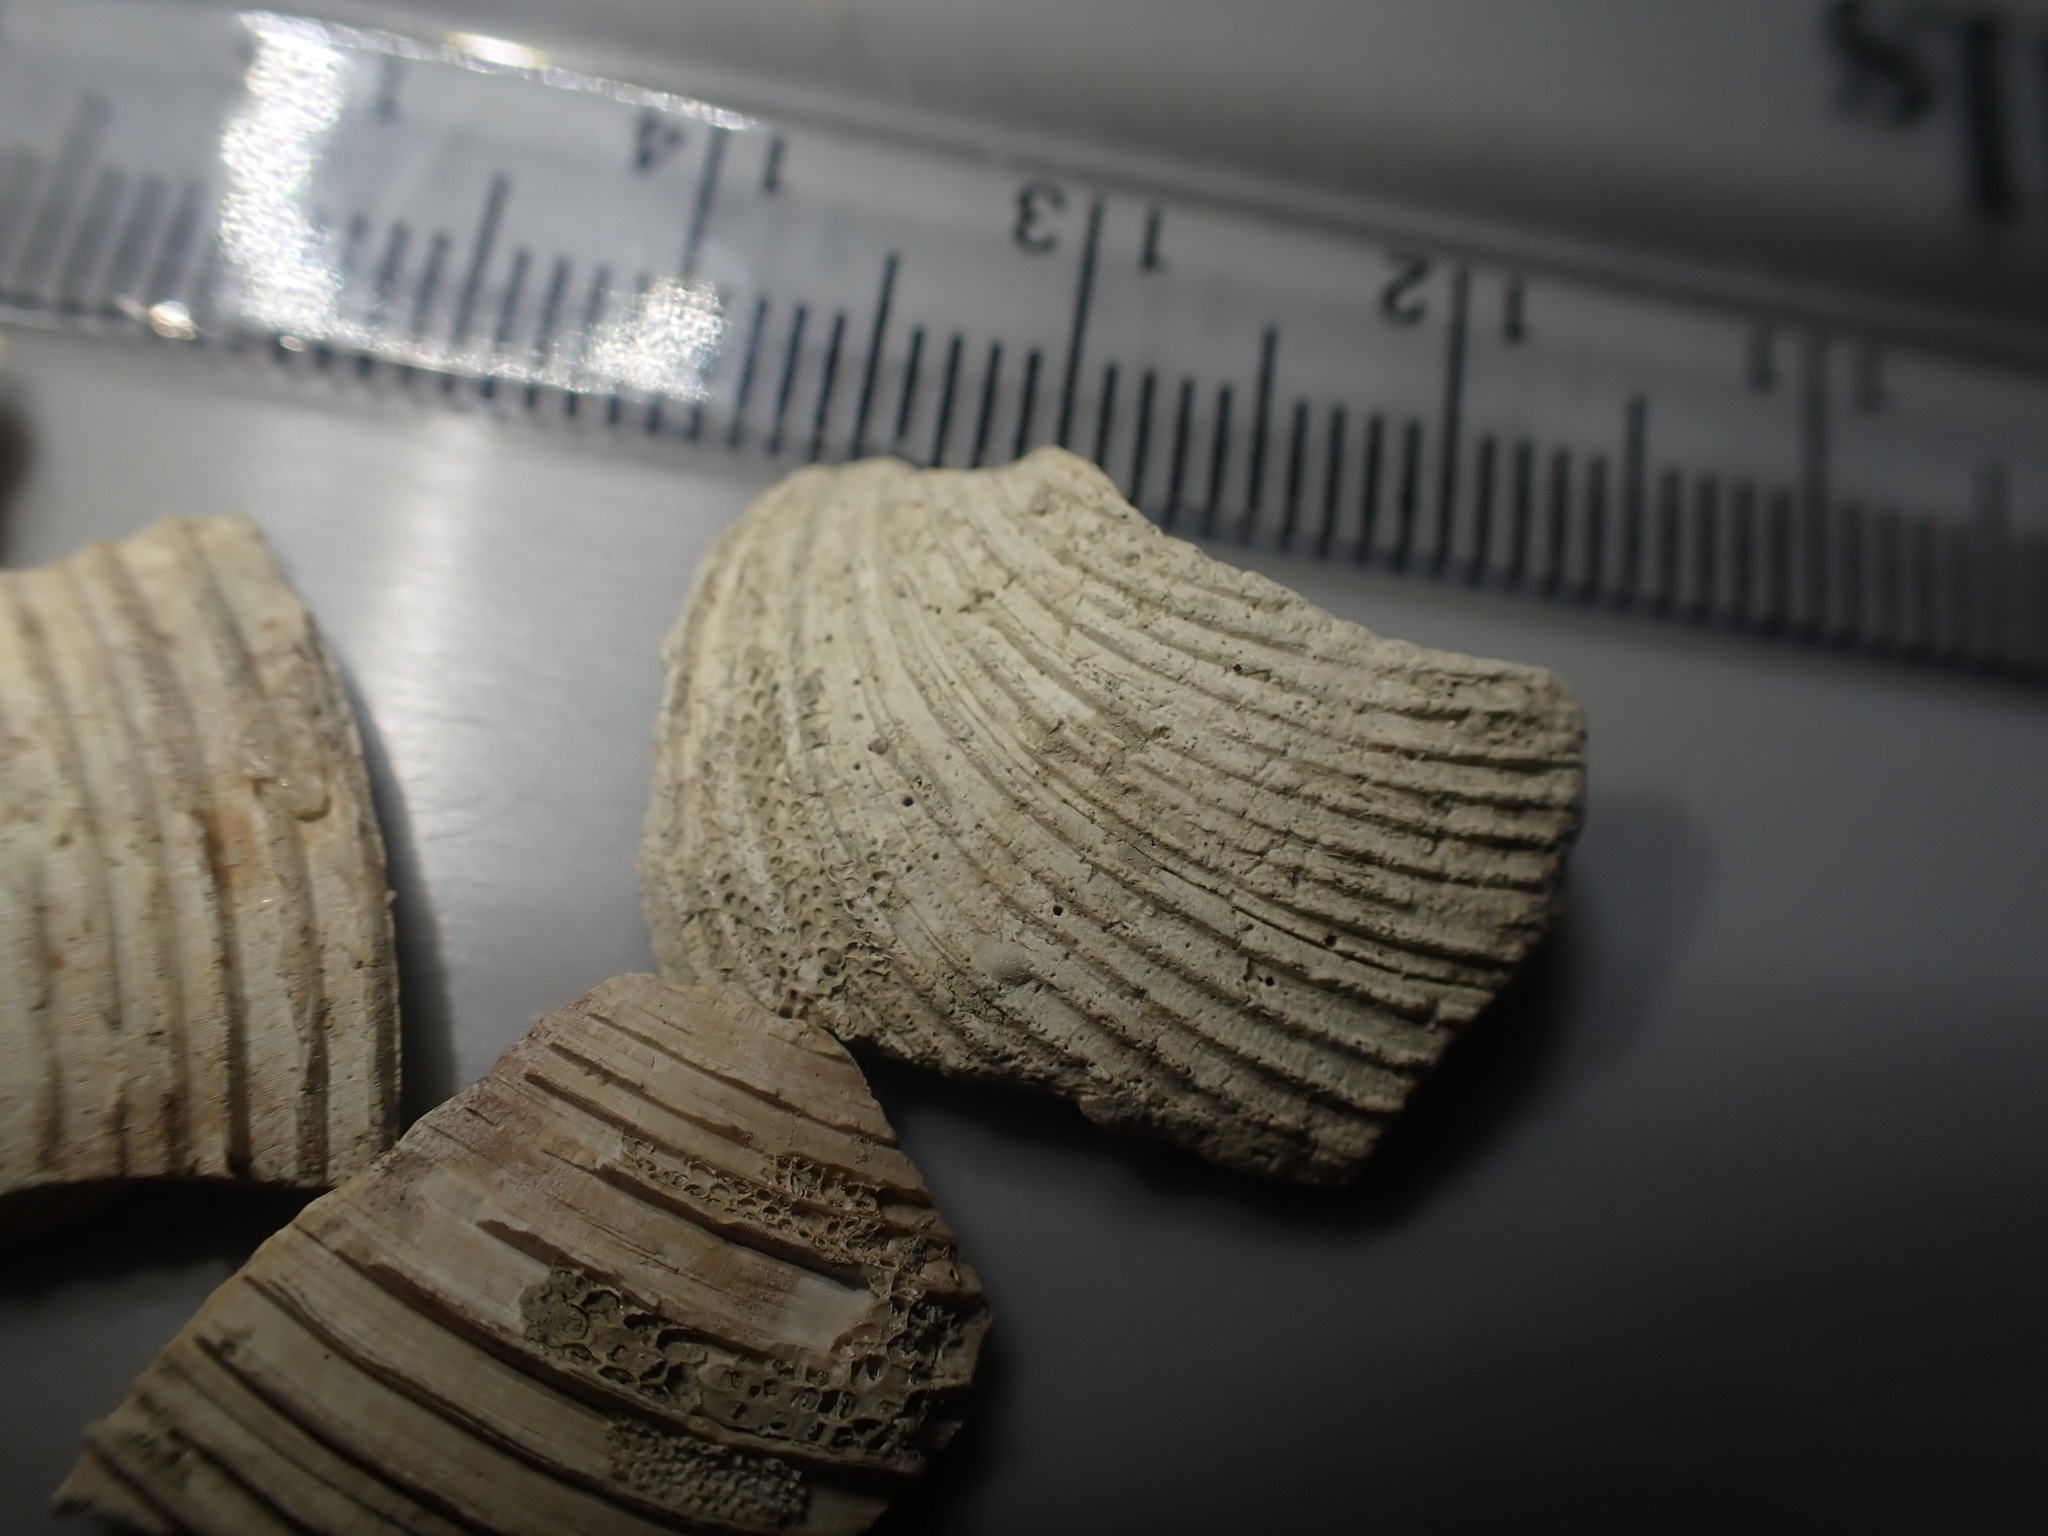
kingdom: Animalia
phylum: Mollusca
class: Bivalvia
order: Venerida
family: Veneridae
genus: Dosina
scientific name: Dosina mactracea
